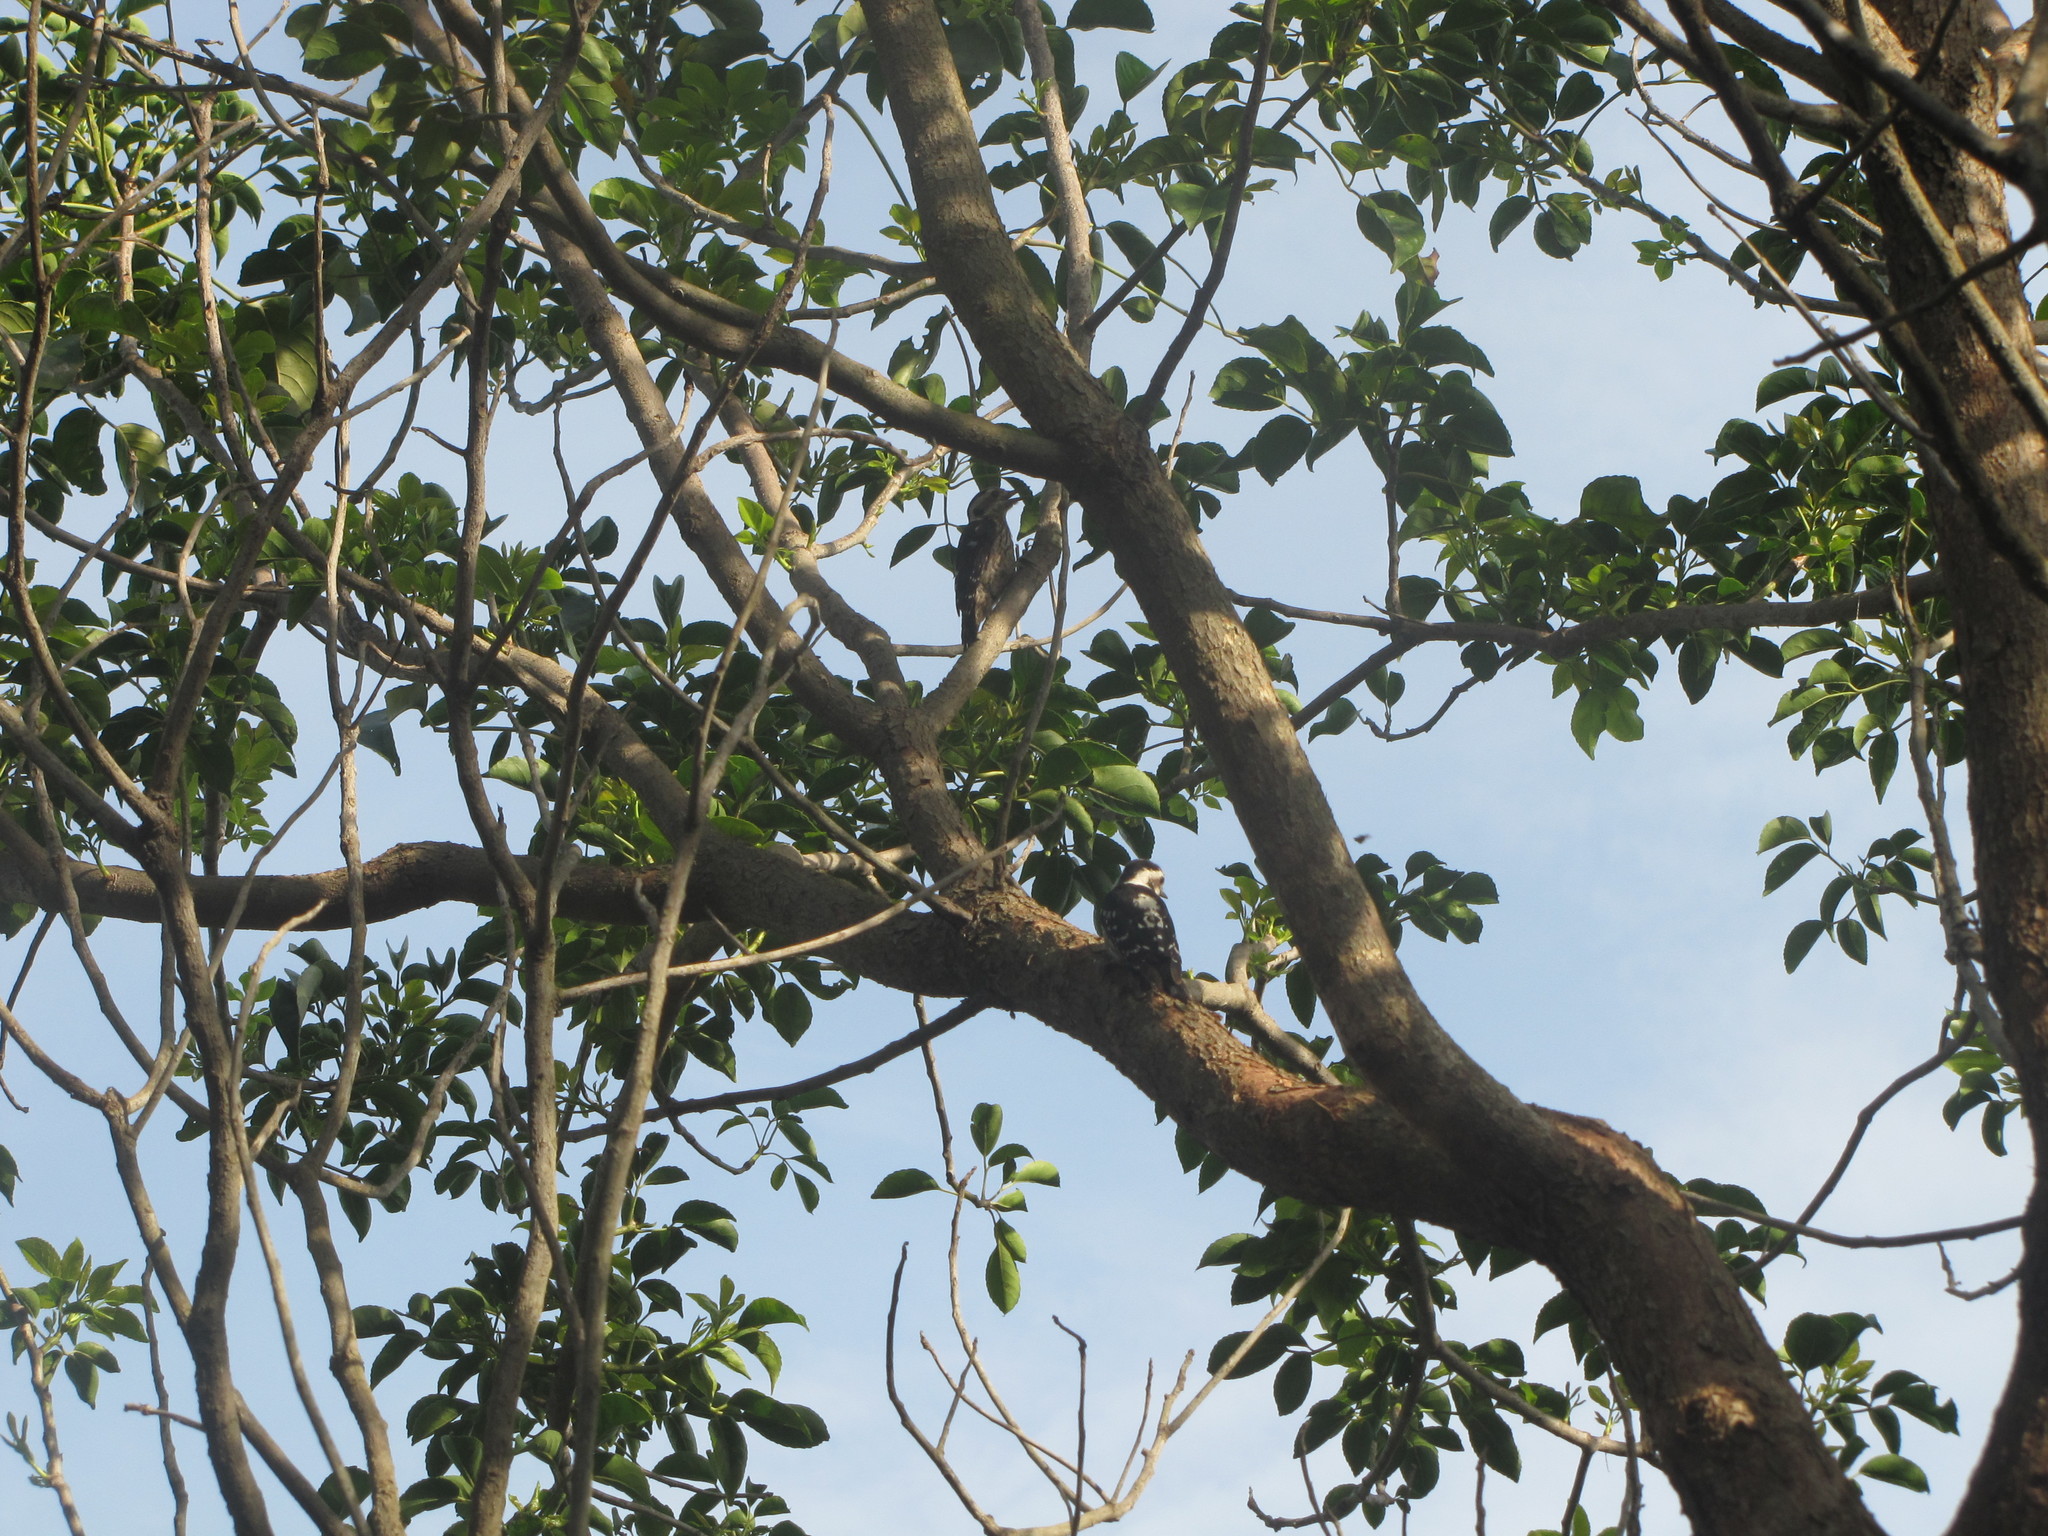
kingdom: Animalia
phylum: Chordata
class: Aves
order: Piciformes
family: Picidae
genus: Yungipicus
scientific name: Yungipicus canicapillus
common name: Grey-capped pygmy woodpecker
